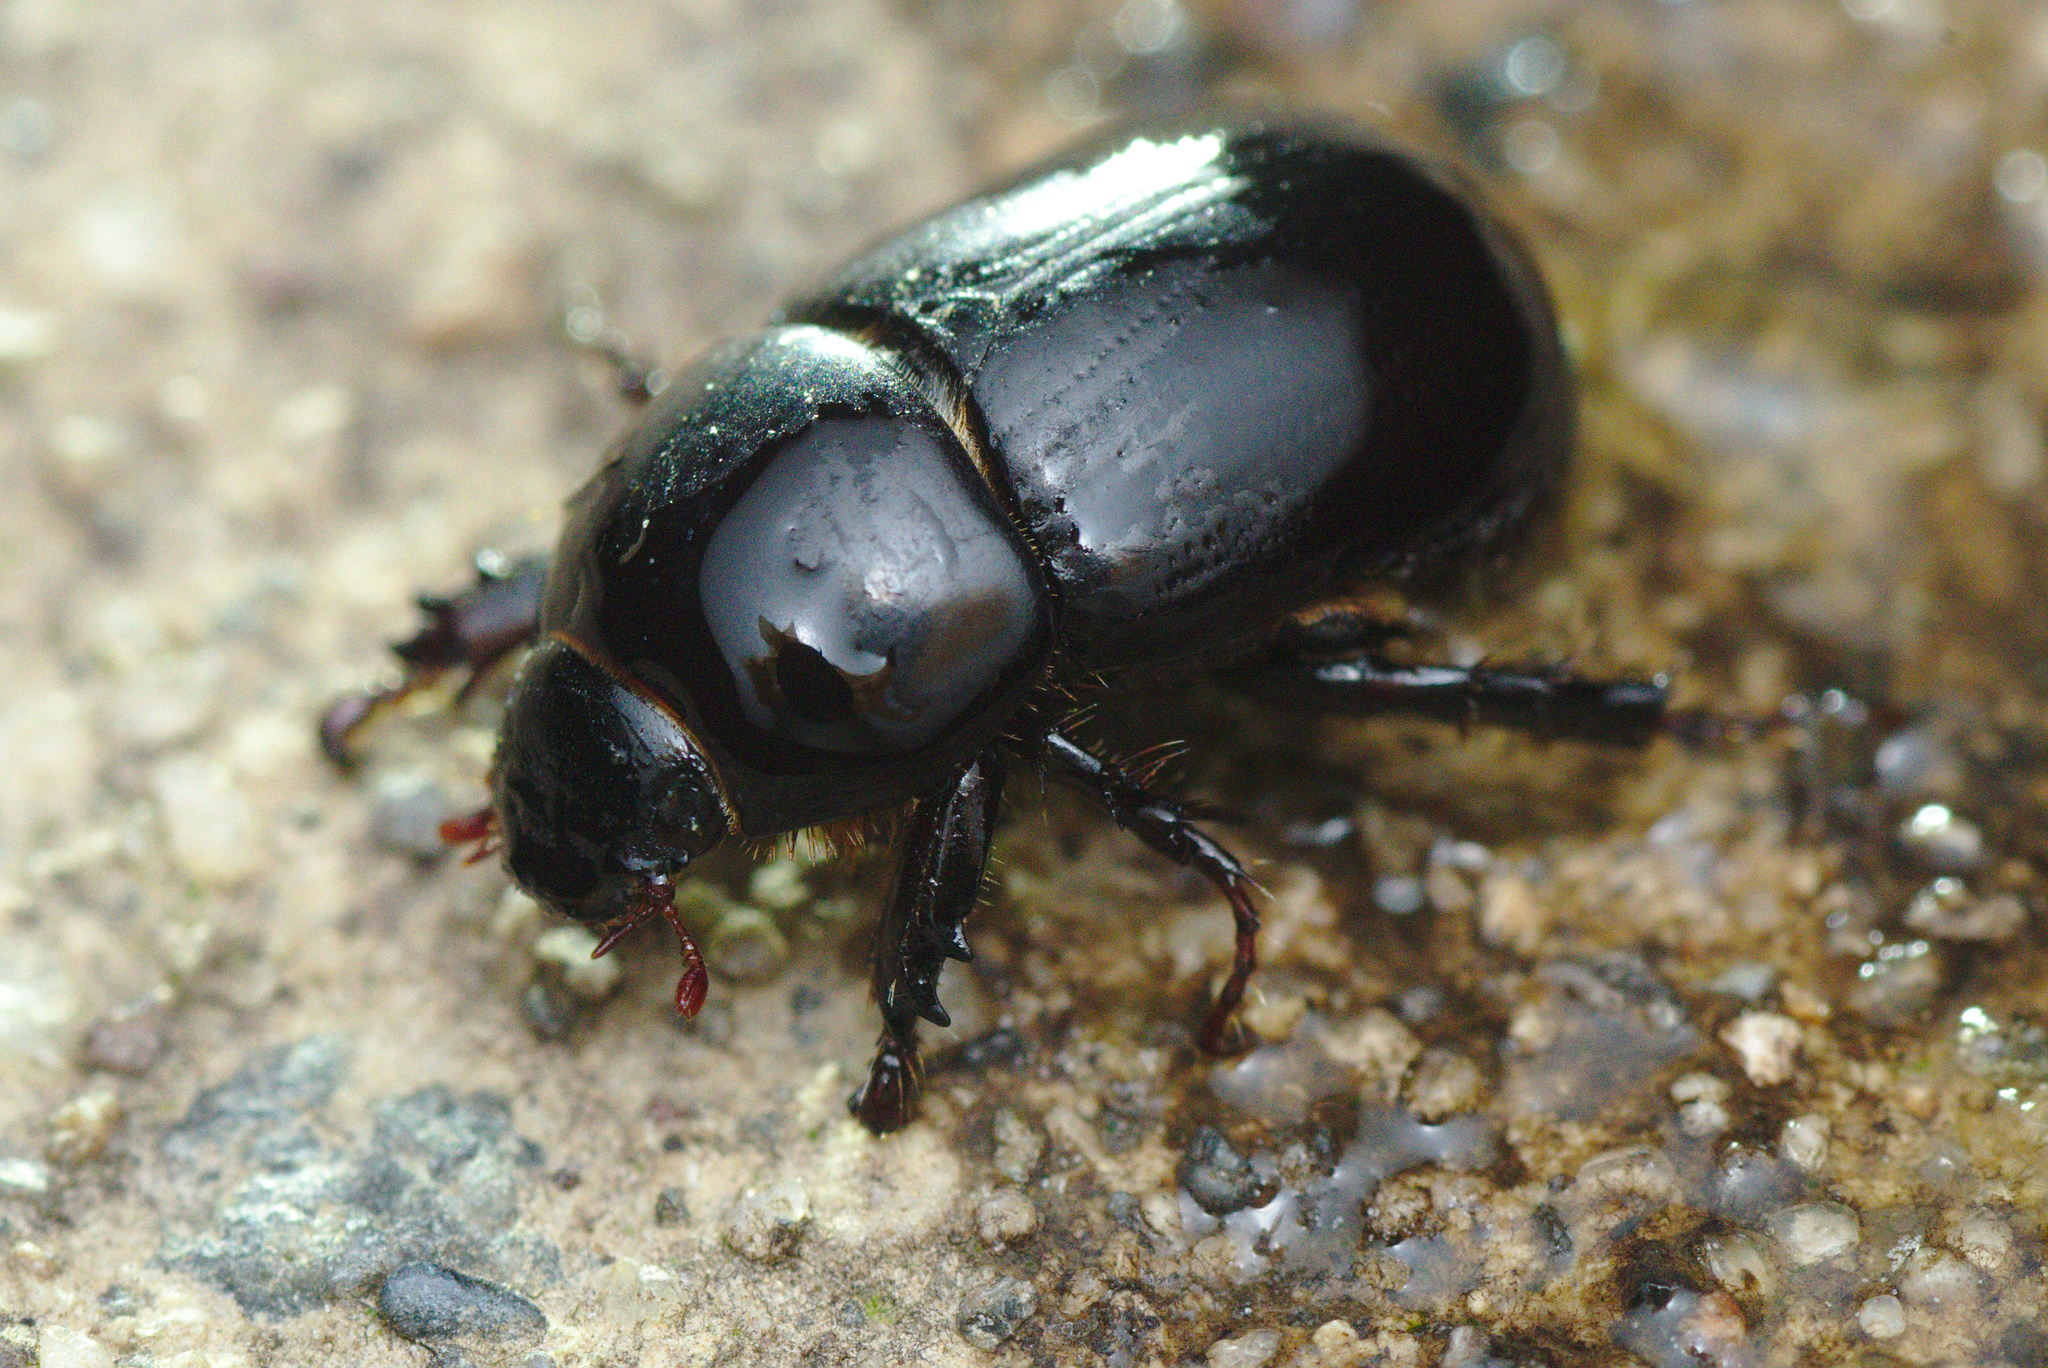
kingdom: Animalia
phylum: Arthropoda
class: Insecta
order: Coleoptera
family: Scarabaeidae
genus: Heteronychus
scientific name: Heteronychus arator
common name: African black beetle
